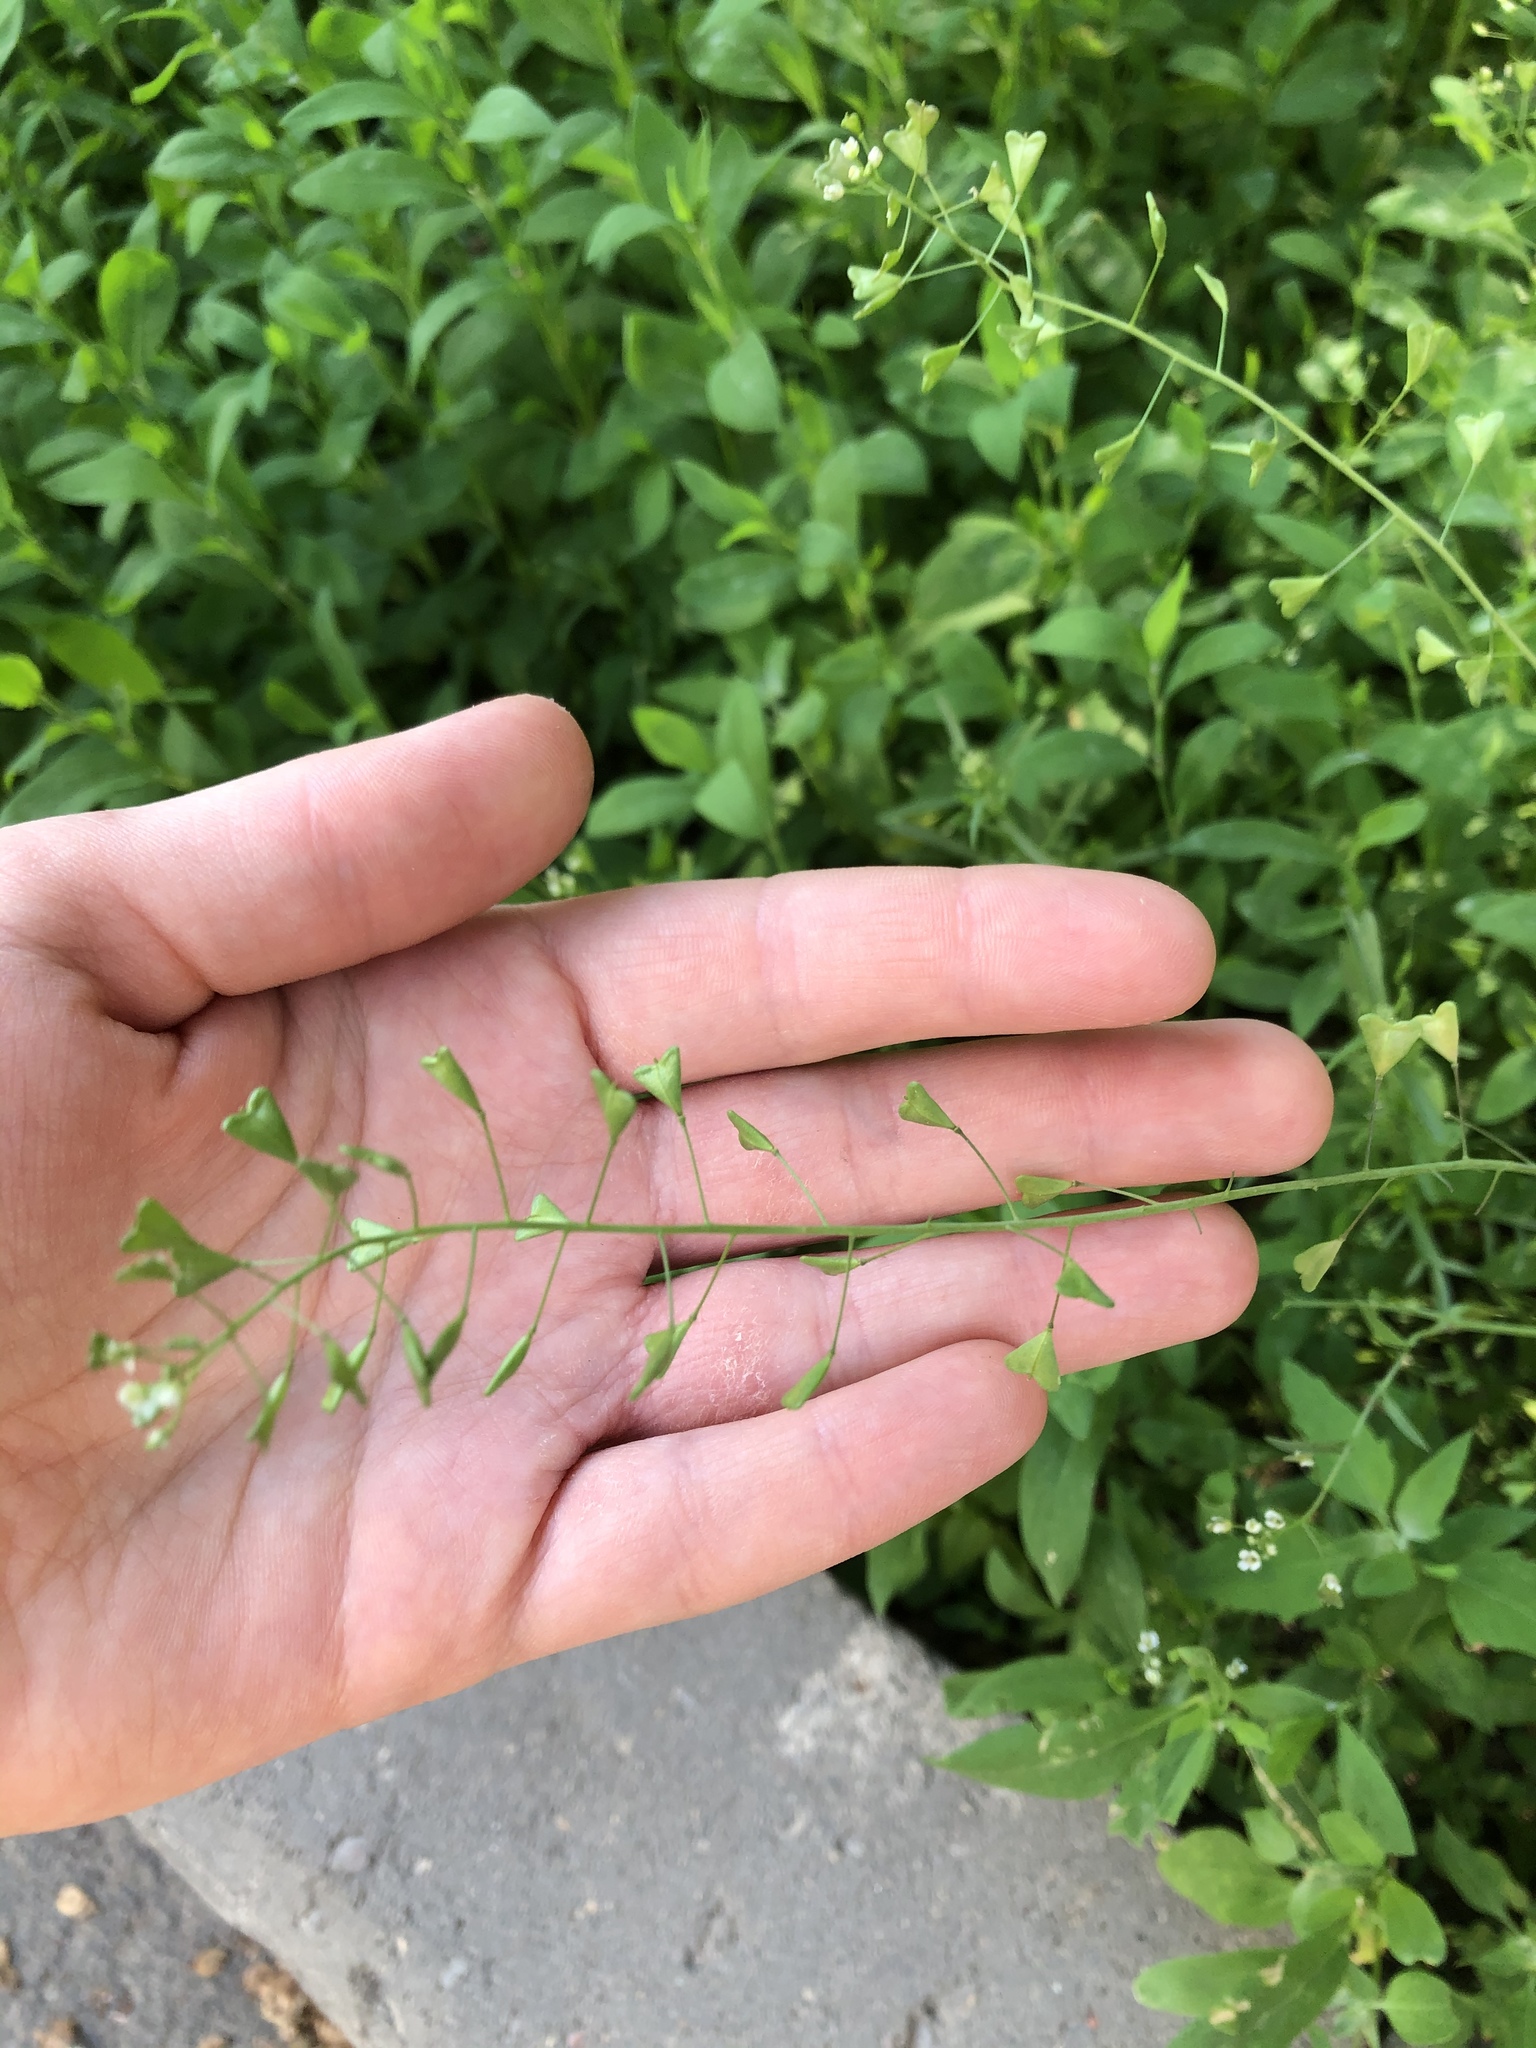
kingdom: Plantae
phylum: Tracheophyta
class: Magnoliopsida
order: Brassicales
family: Brassicaceae
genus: Capsella
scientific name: Capsella bursa-pastoris
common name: Shepherd's purse
